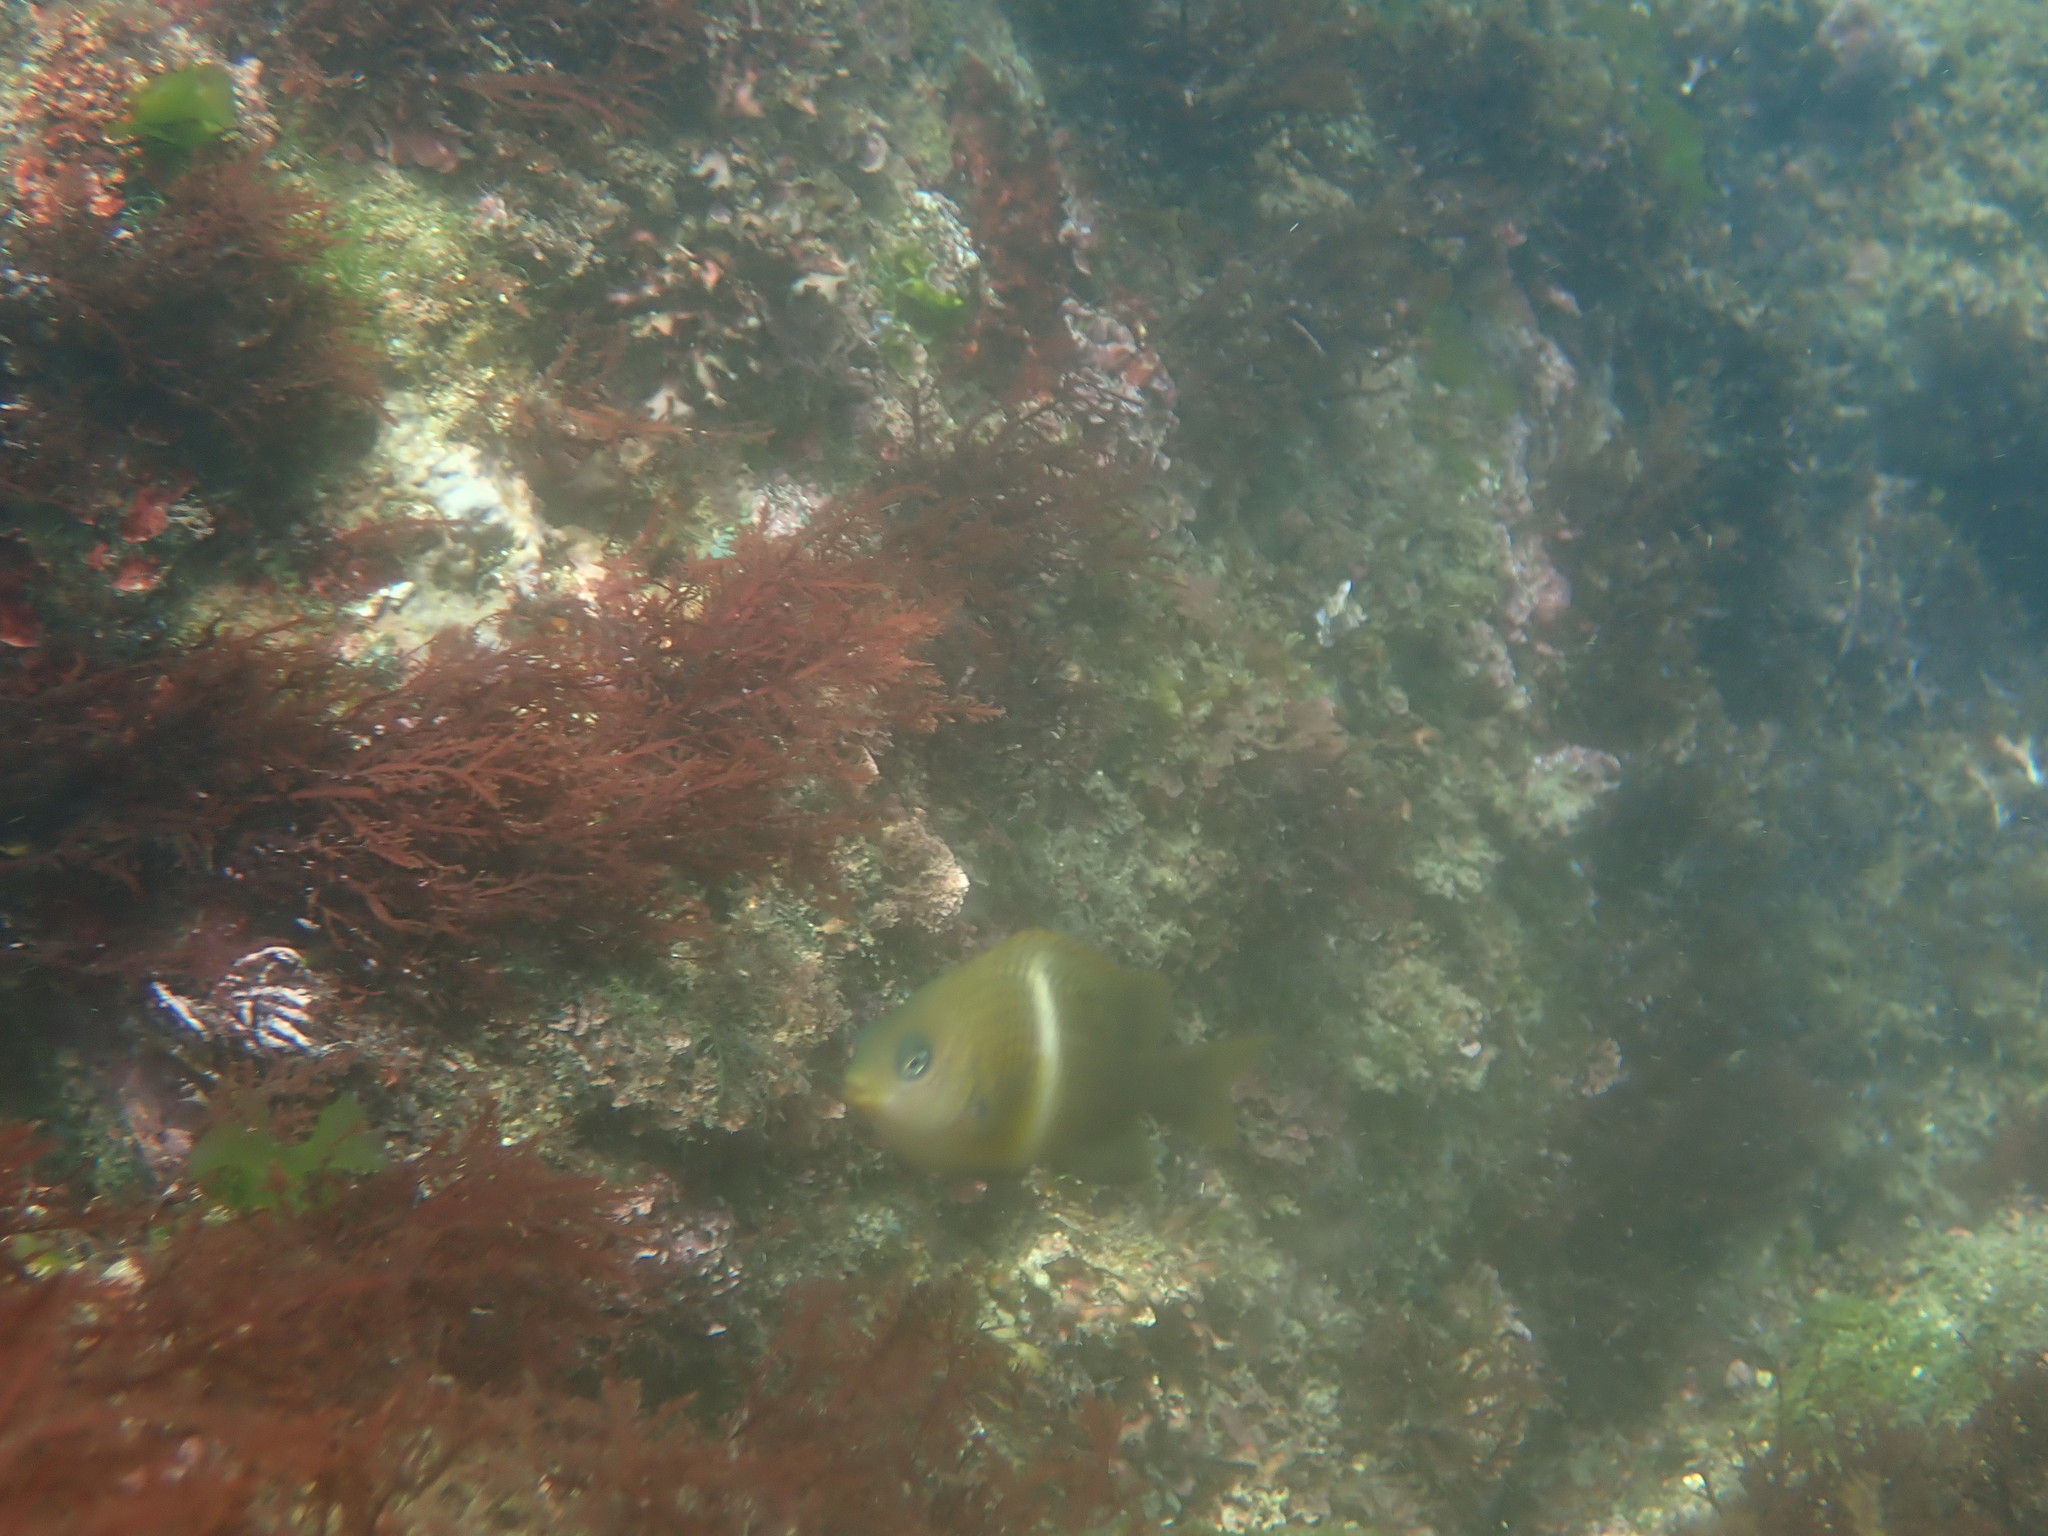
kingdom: Animalia
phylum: Chordata
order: Perciformes
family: Pomacentridae
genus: Plectroglyphidodon
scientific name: Plectroglyphidodon leucozonus
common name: White-band damsel
